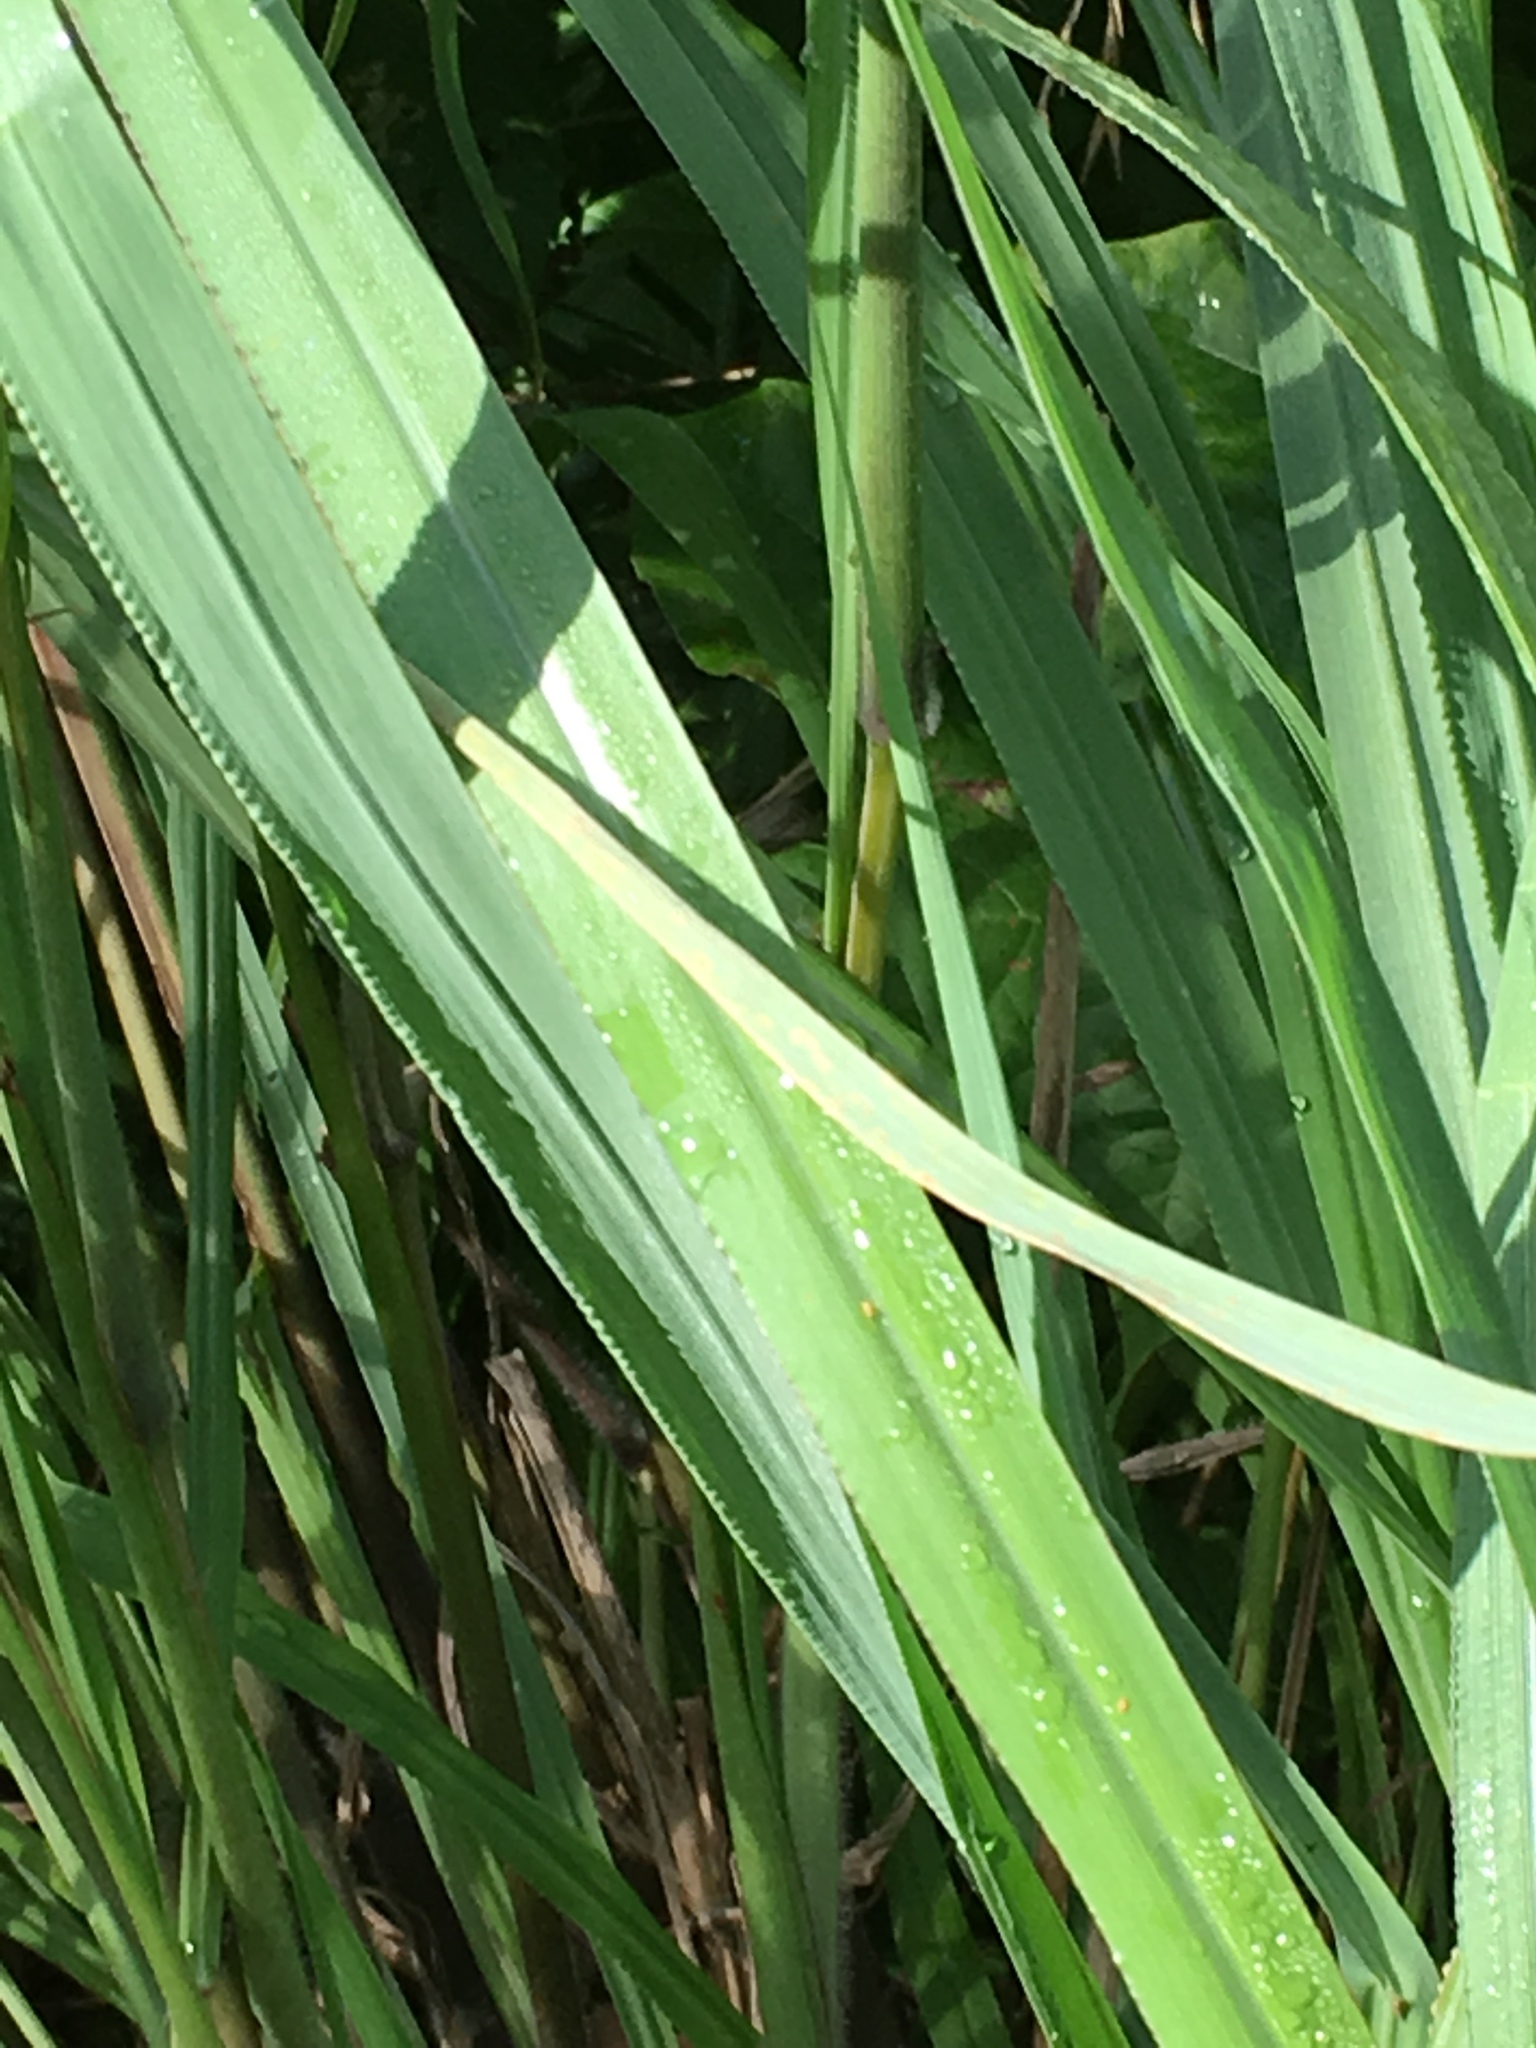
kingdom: Plantae
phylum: Tracheophyta
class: Liliopsida
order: Poales
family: Poaceae
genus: Paspalum
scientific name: Paspalum urvillei
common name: Vasey's grass
